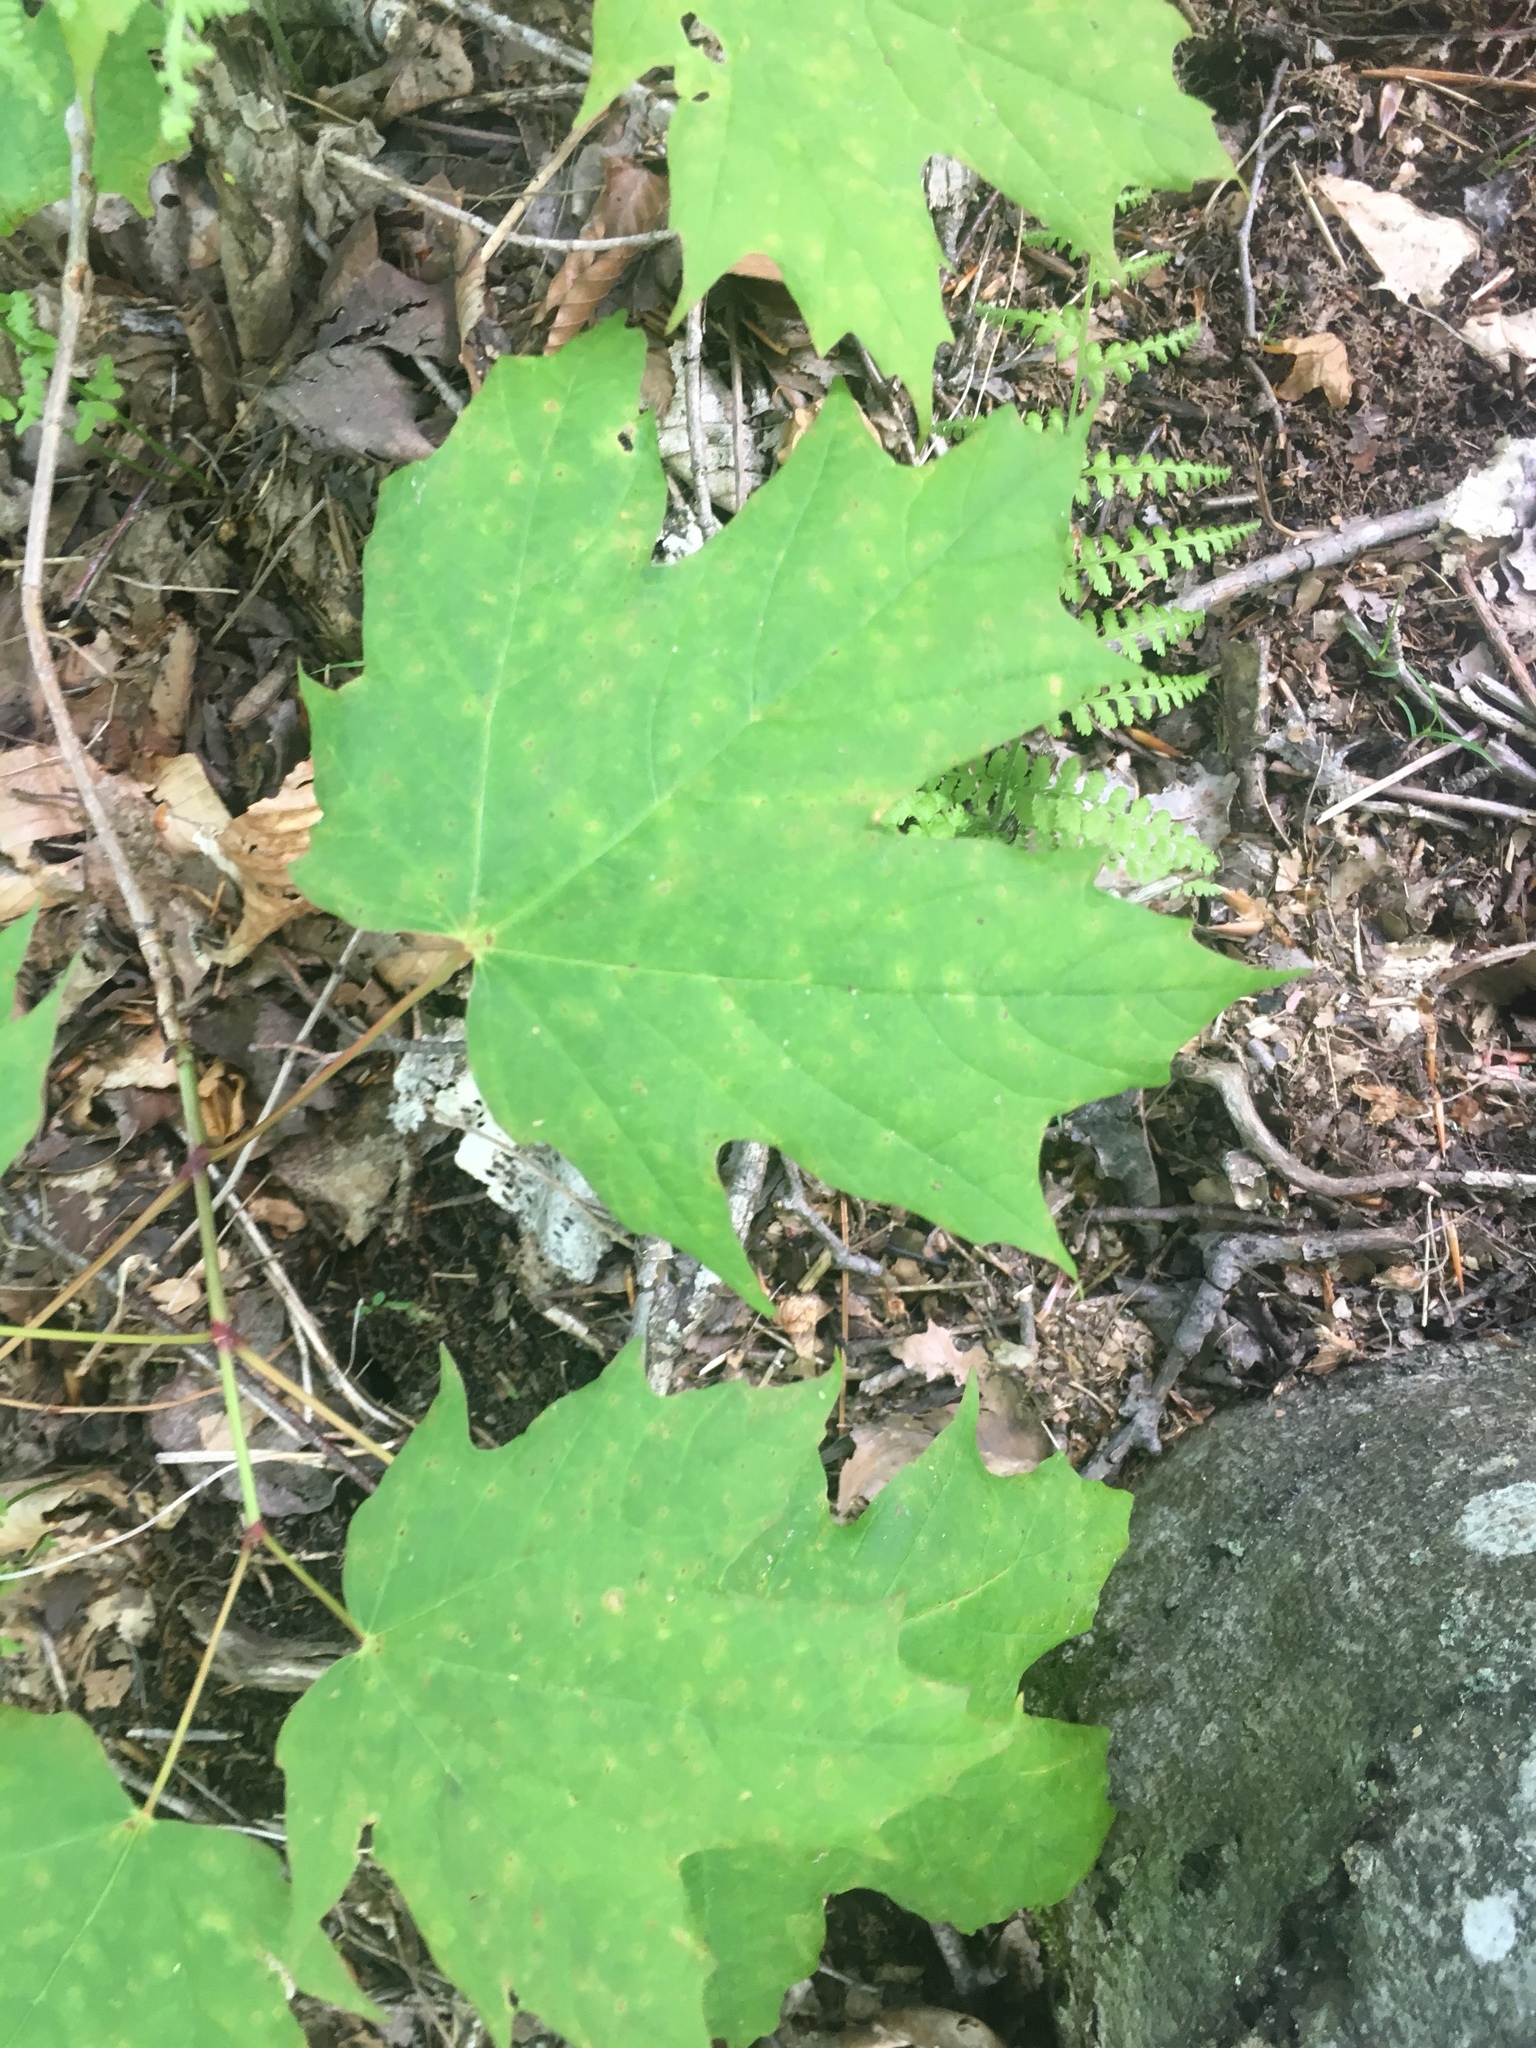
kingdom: Plantae
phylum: Tracheophyta
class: Magnoliopsida
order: Sapindales
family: Sapindaceae
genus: Acer
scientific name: Acer saccharum
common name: Sugar maple
